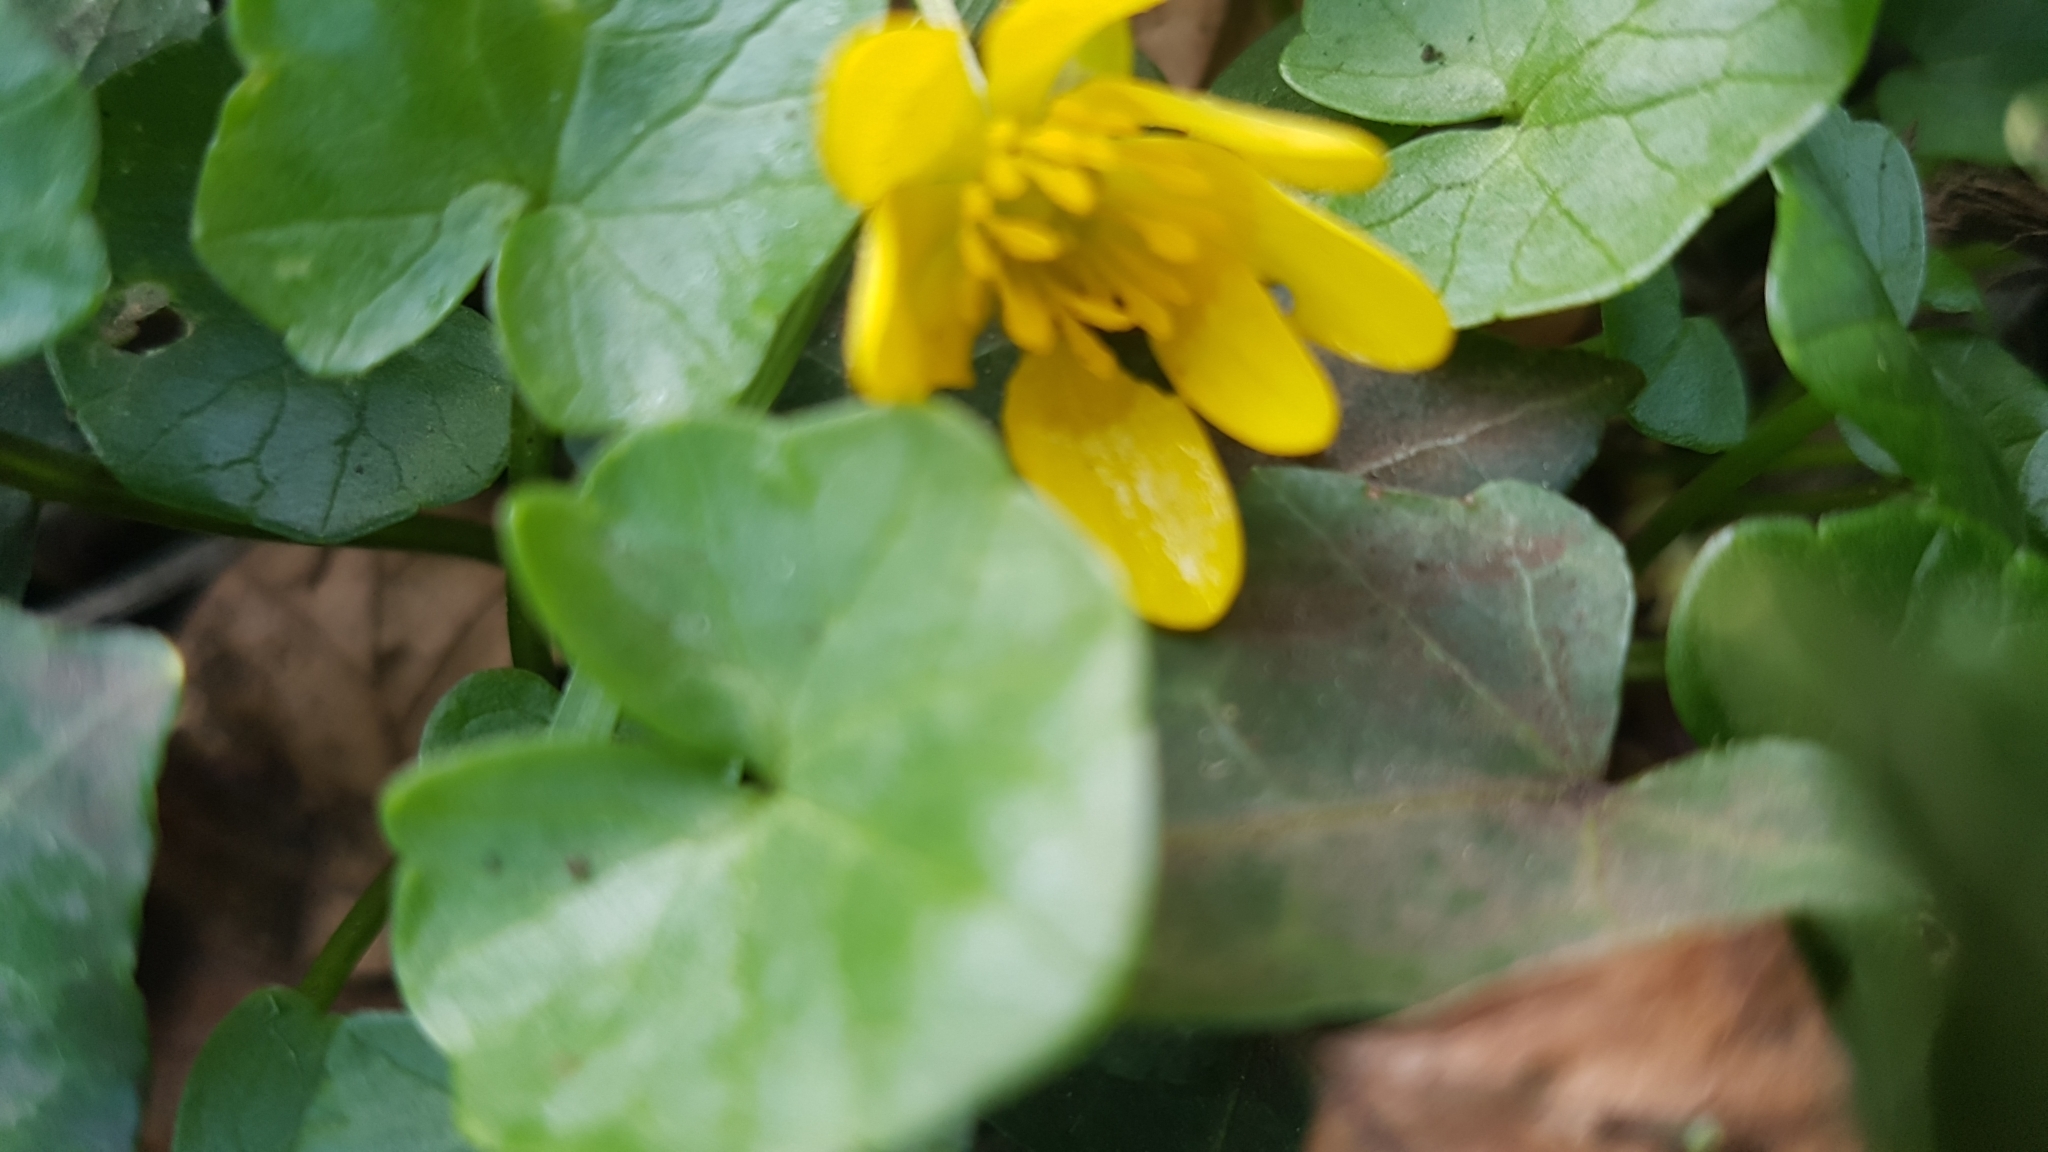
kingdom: Plantae
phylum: Tracheophyta
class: Magnoliopsida
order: Ranunculales
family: Ranunculaceae
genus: Ficaria
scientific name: Ficaria verna
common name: Lesser celandine
